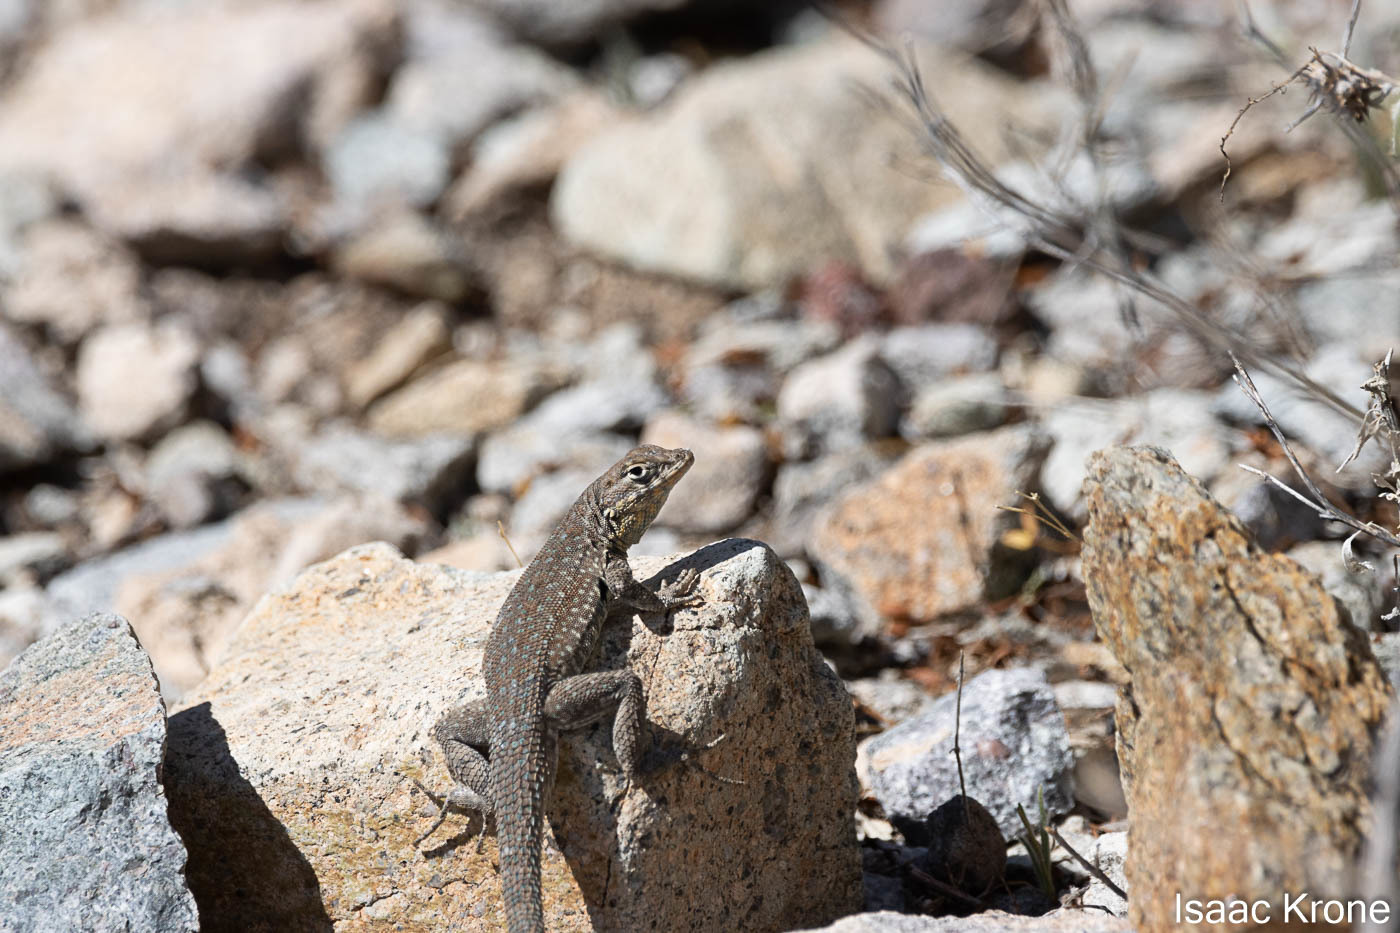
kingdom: Animalia
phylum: Chordata
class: Squamata
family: Phrynosomatidae
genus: Uta
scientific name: Uta stansburiana
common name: Side-blotched lizard
